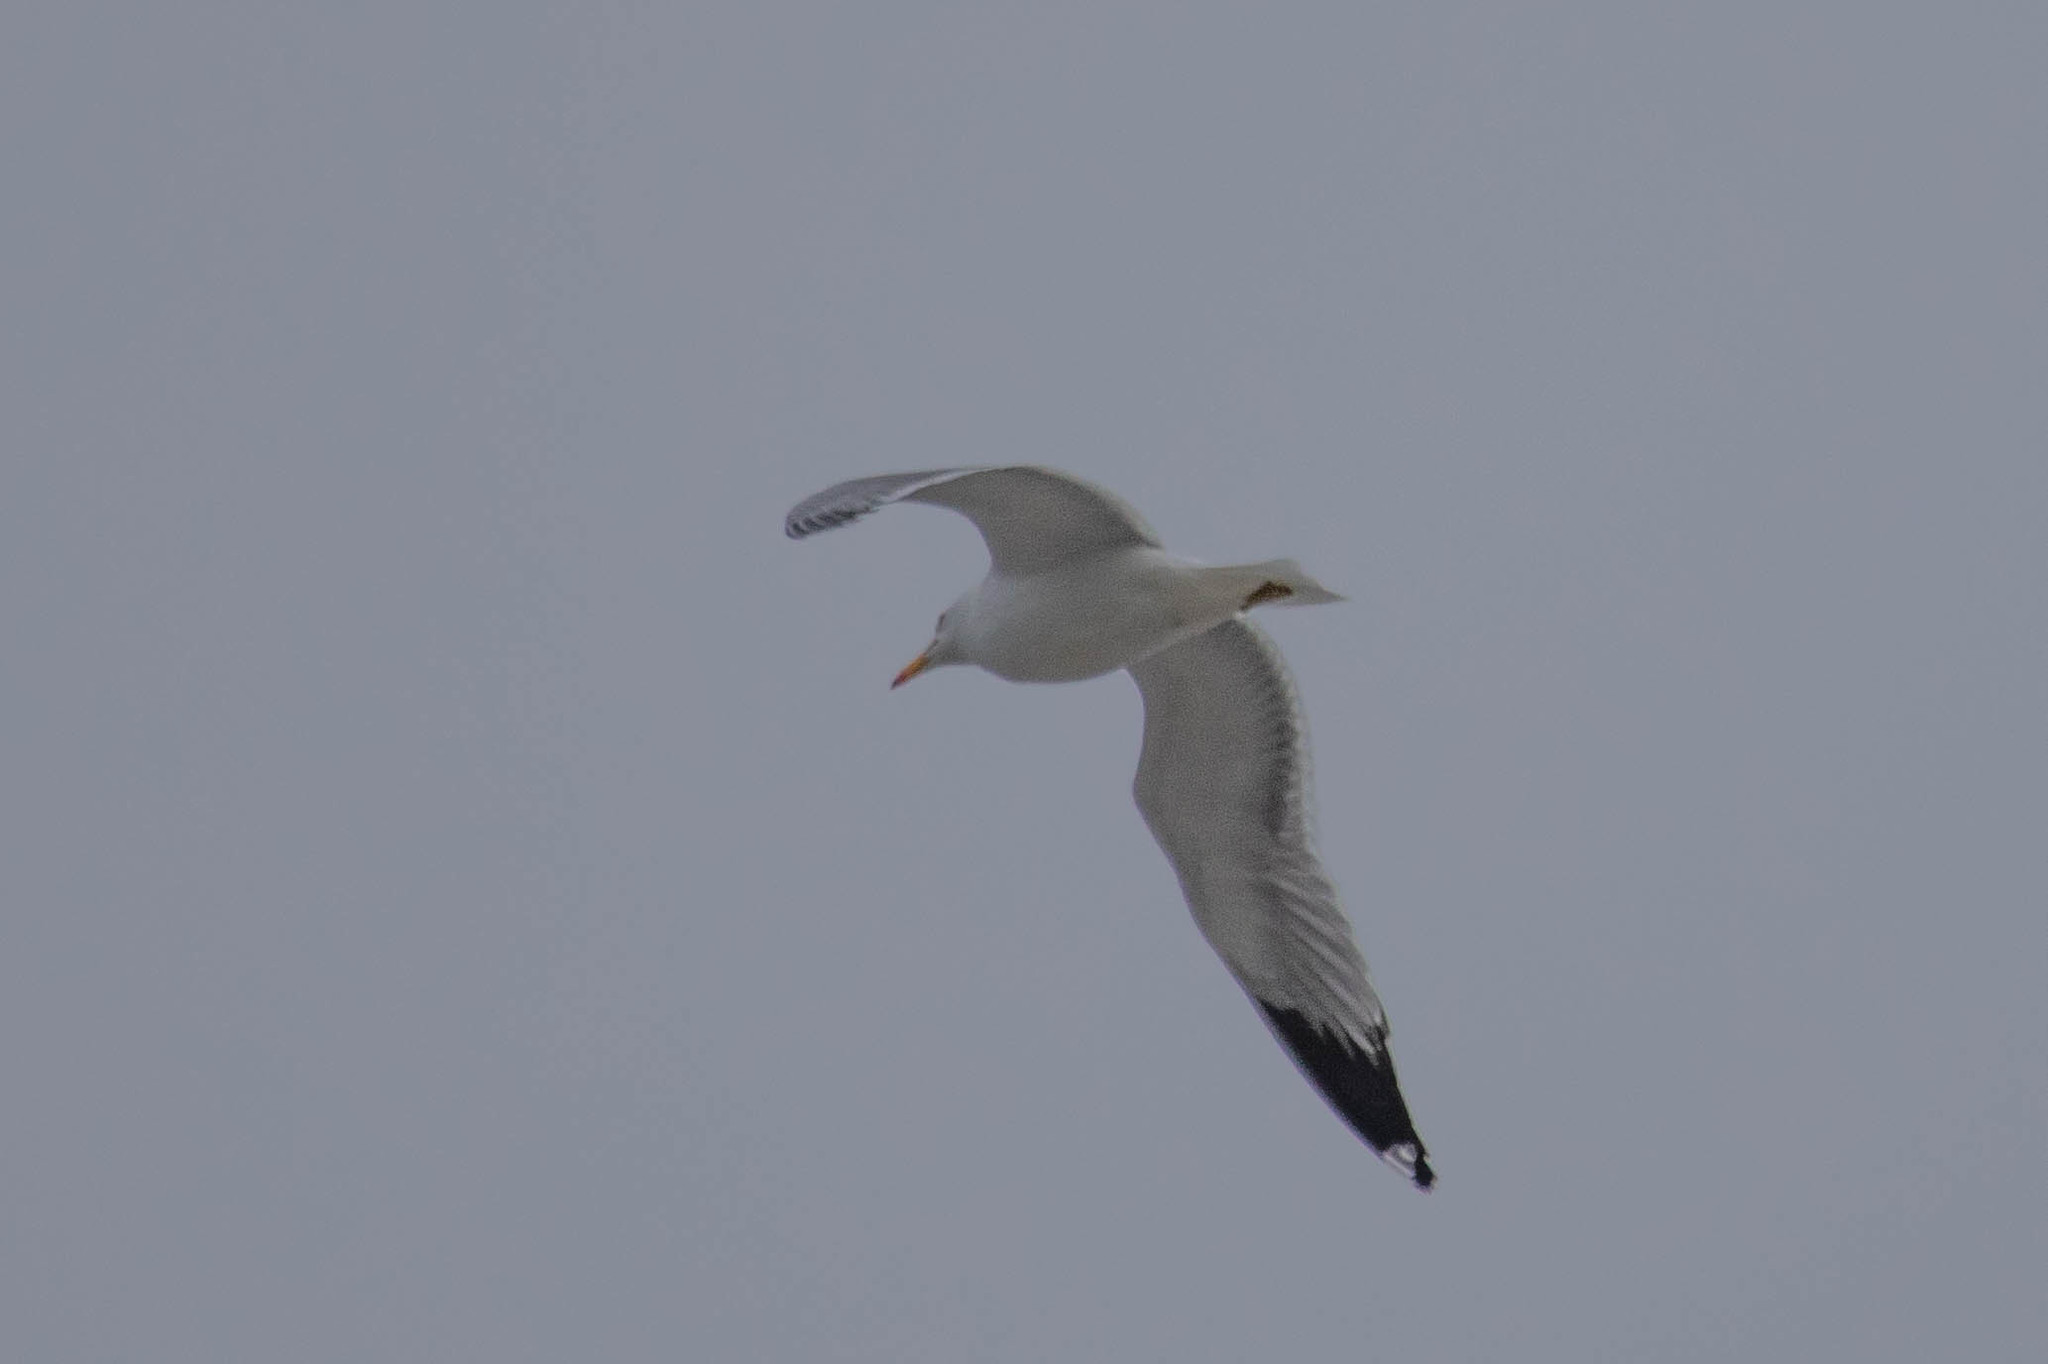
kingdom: Animalia
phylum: Chordata
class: Aves
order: Charadriiformes
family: Laridae
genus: Larus
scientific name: Larus californicus
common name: California gull
